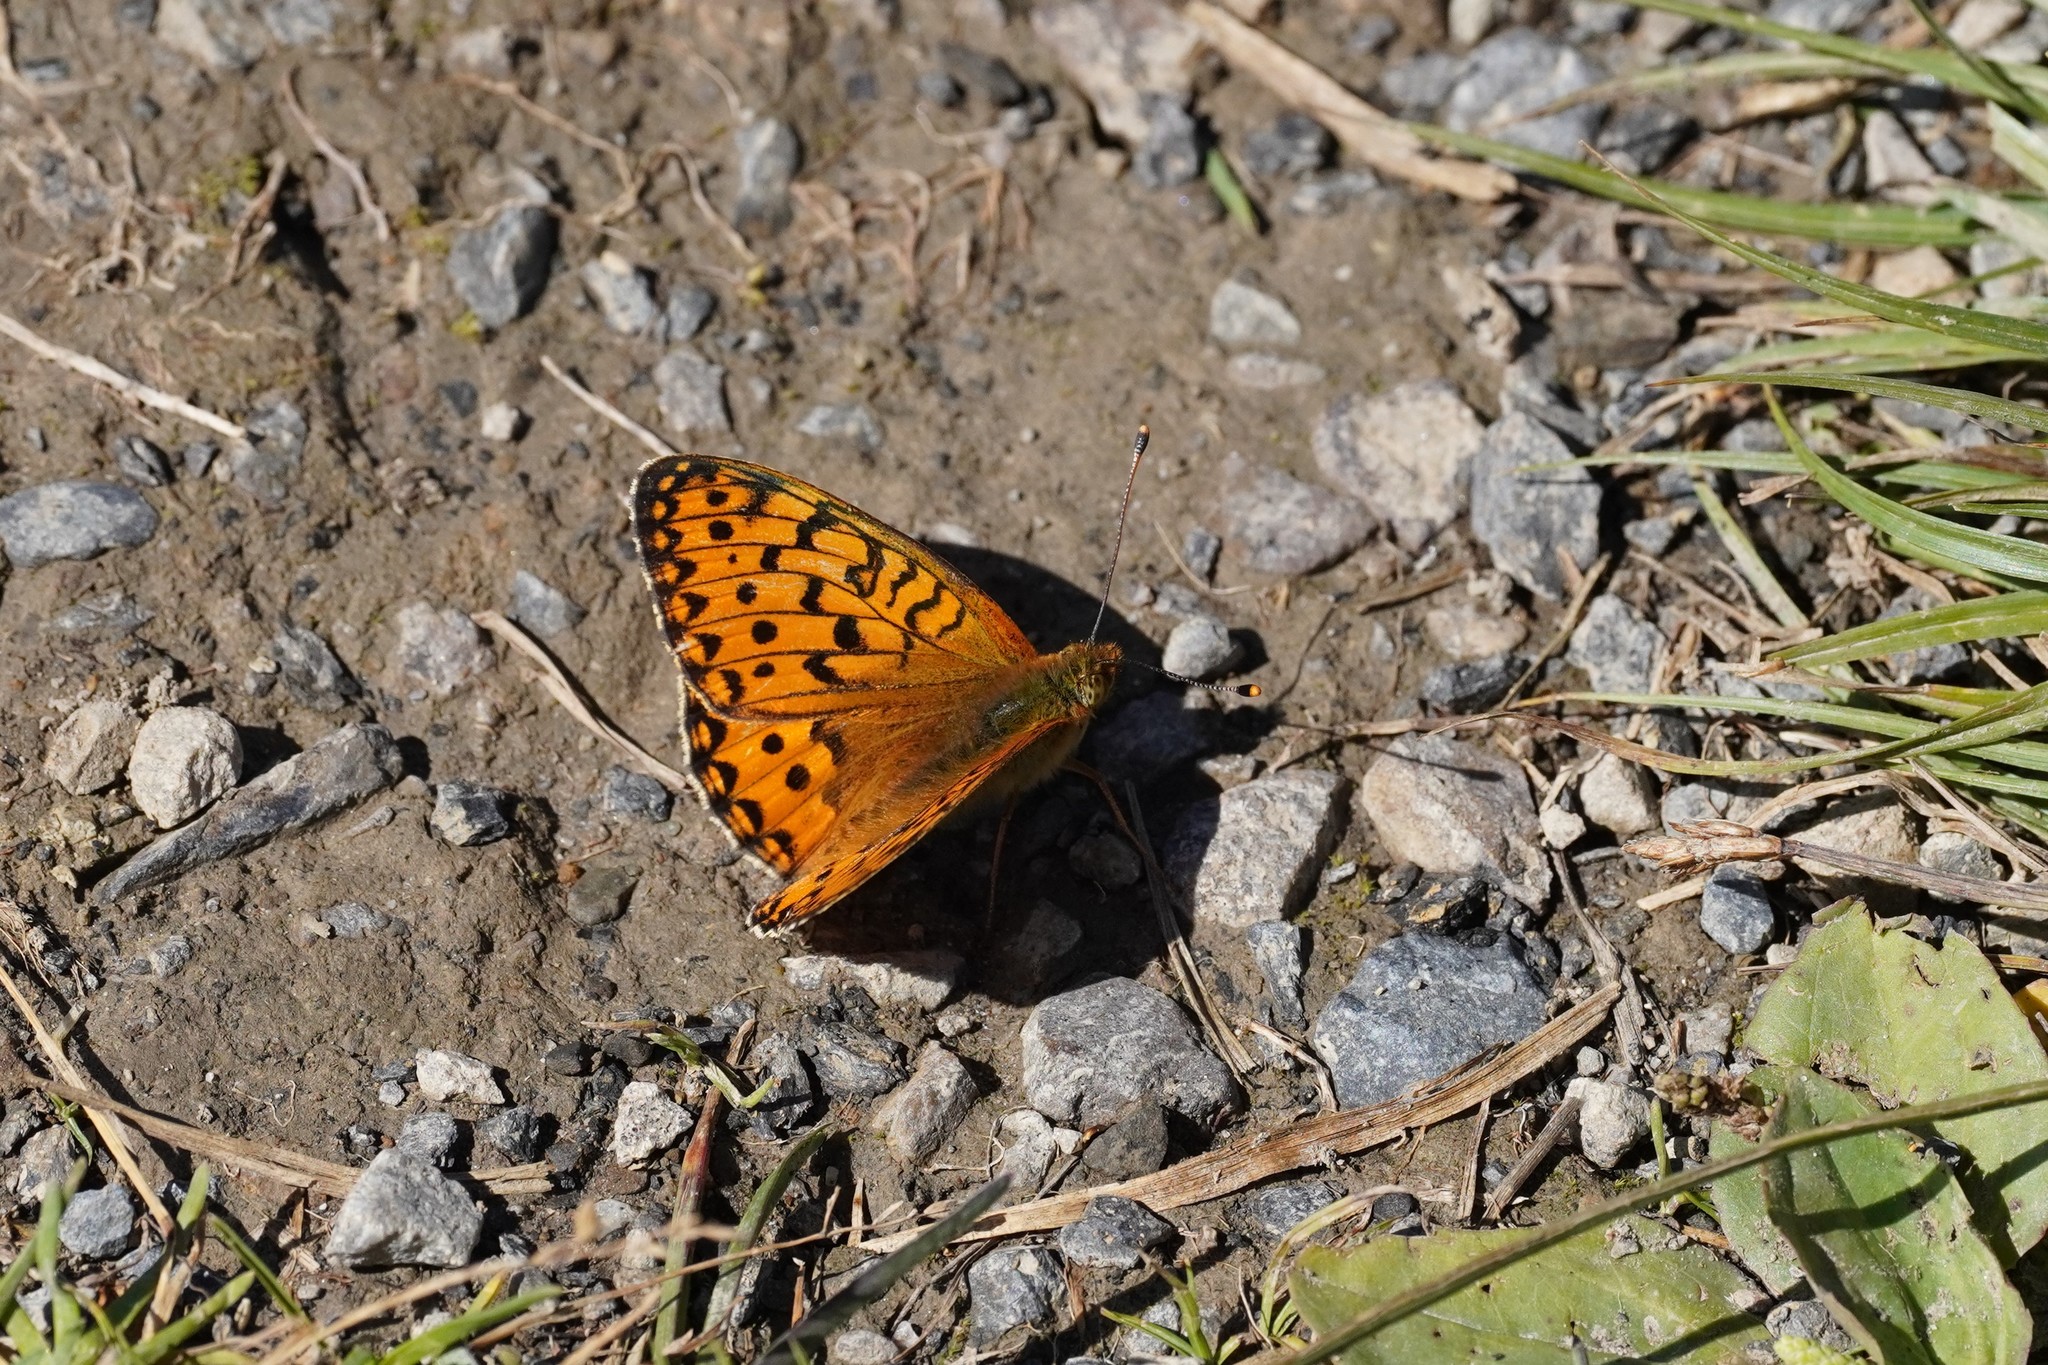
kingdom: Animalia
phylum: Arthropoda
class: Insecta
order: Lepidoptera
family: Nymphalidae
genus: Speyeria
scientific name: Speyeria aglaja
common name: Dark green fritillary
